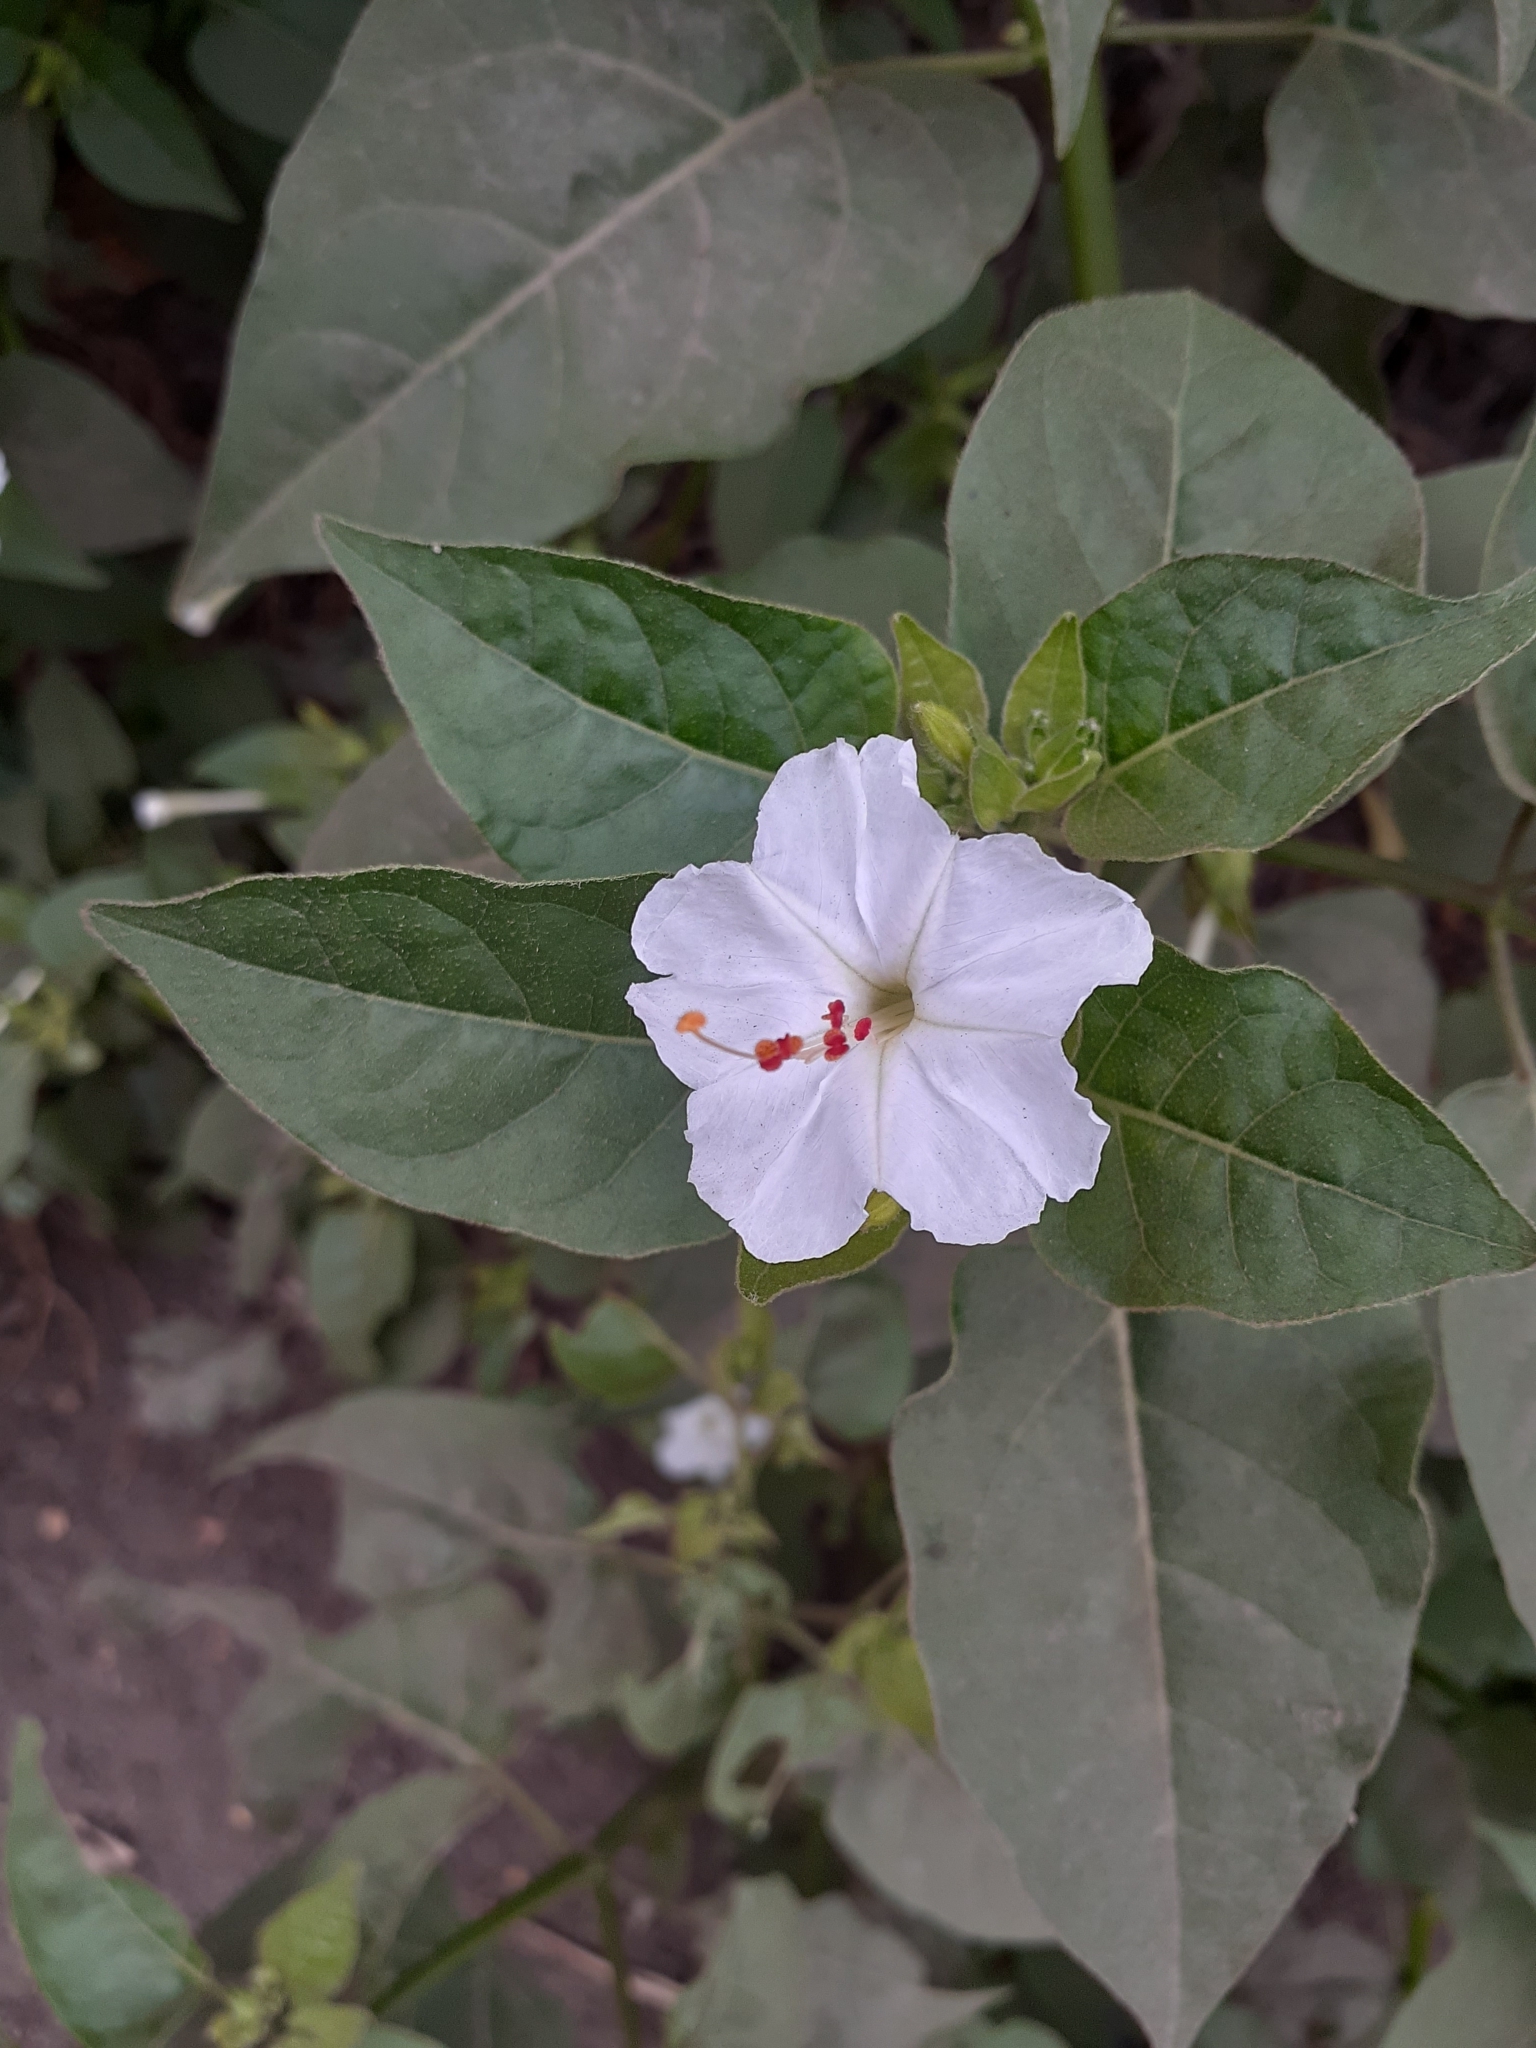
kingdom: Plantae
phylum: Tracheophyta
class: Magnoliopsida
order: Caryophyllales
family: Nyctaginaceae
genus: Mirabilis
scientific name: Mirabilis jalapa
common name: Marvel-of-peru
